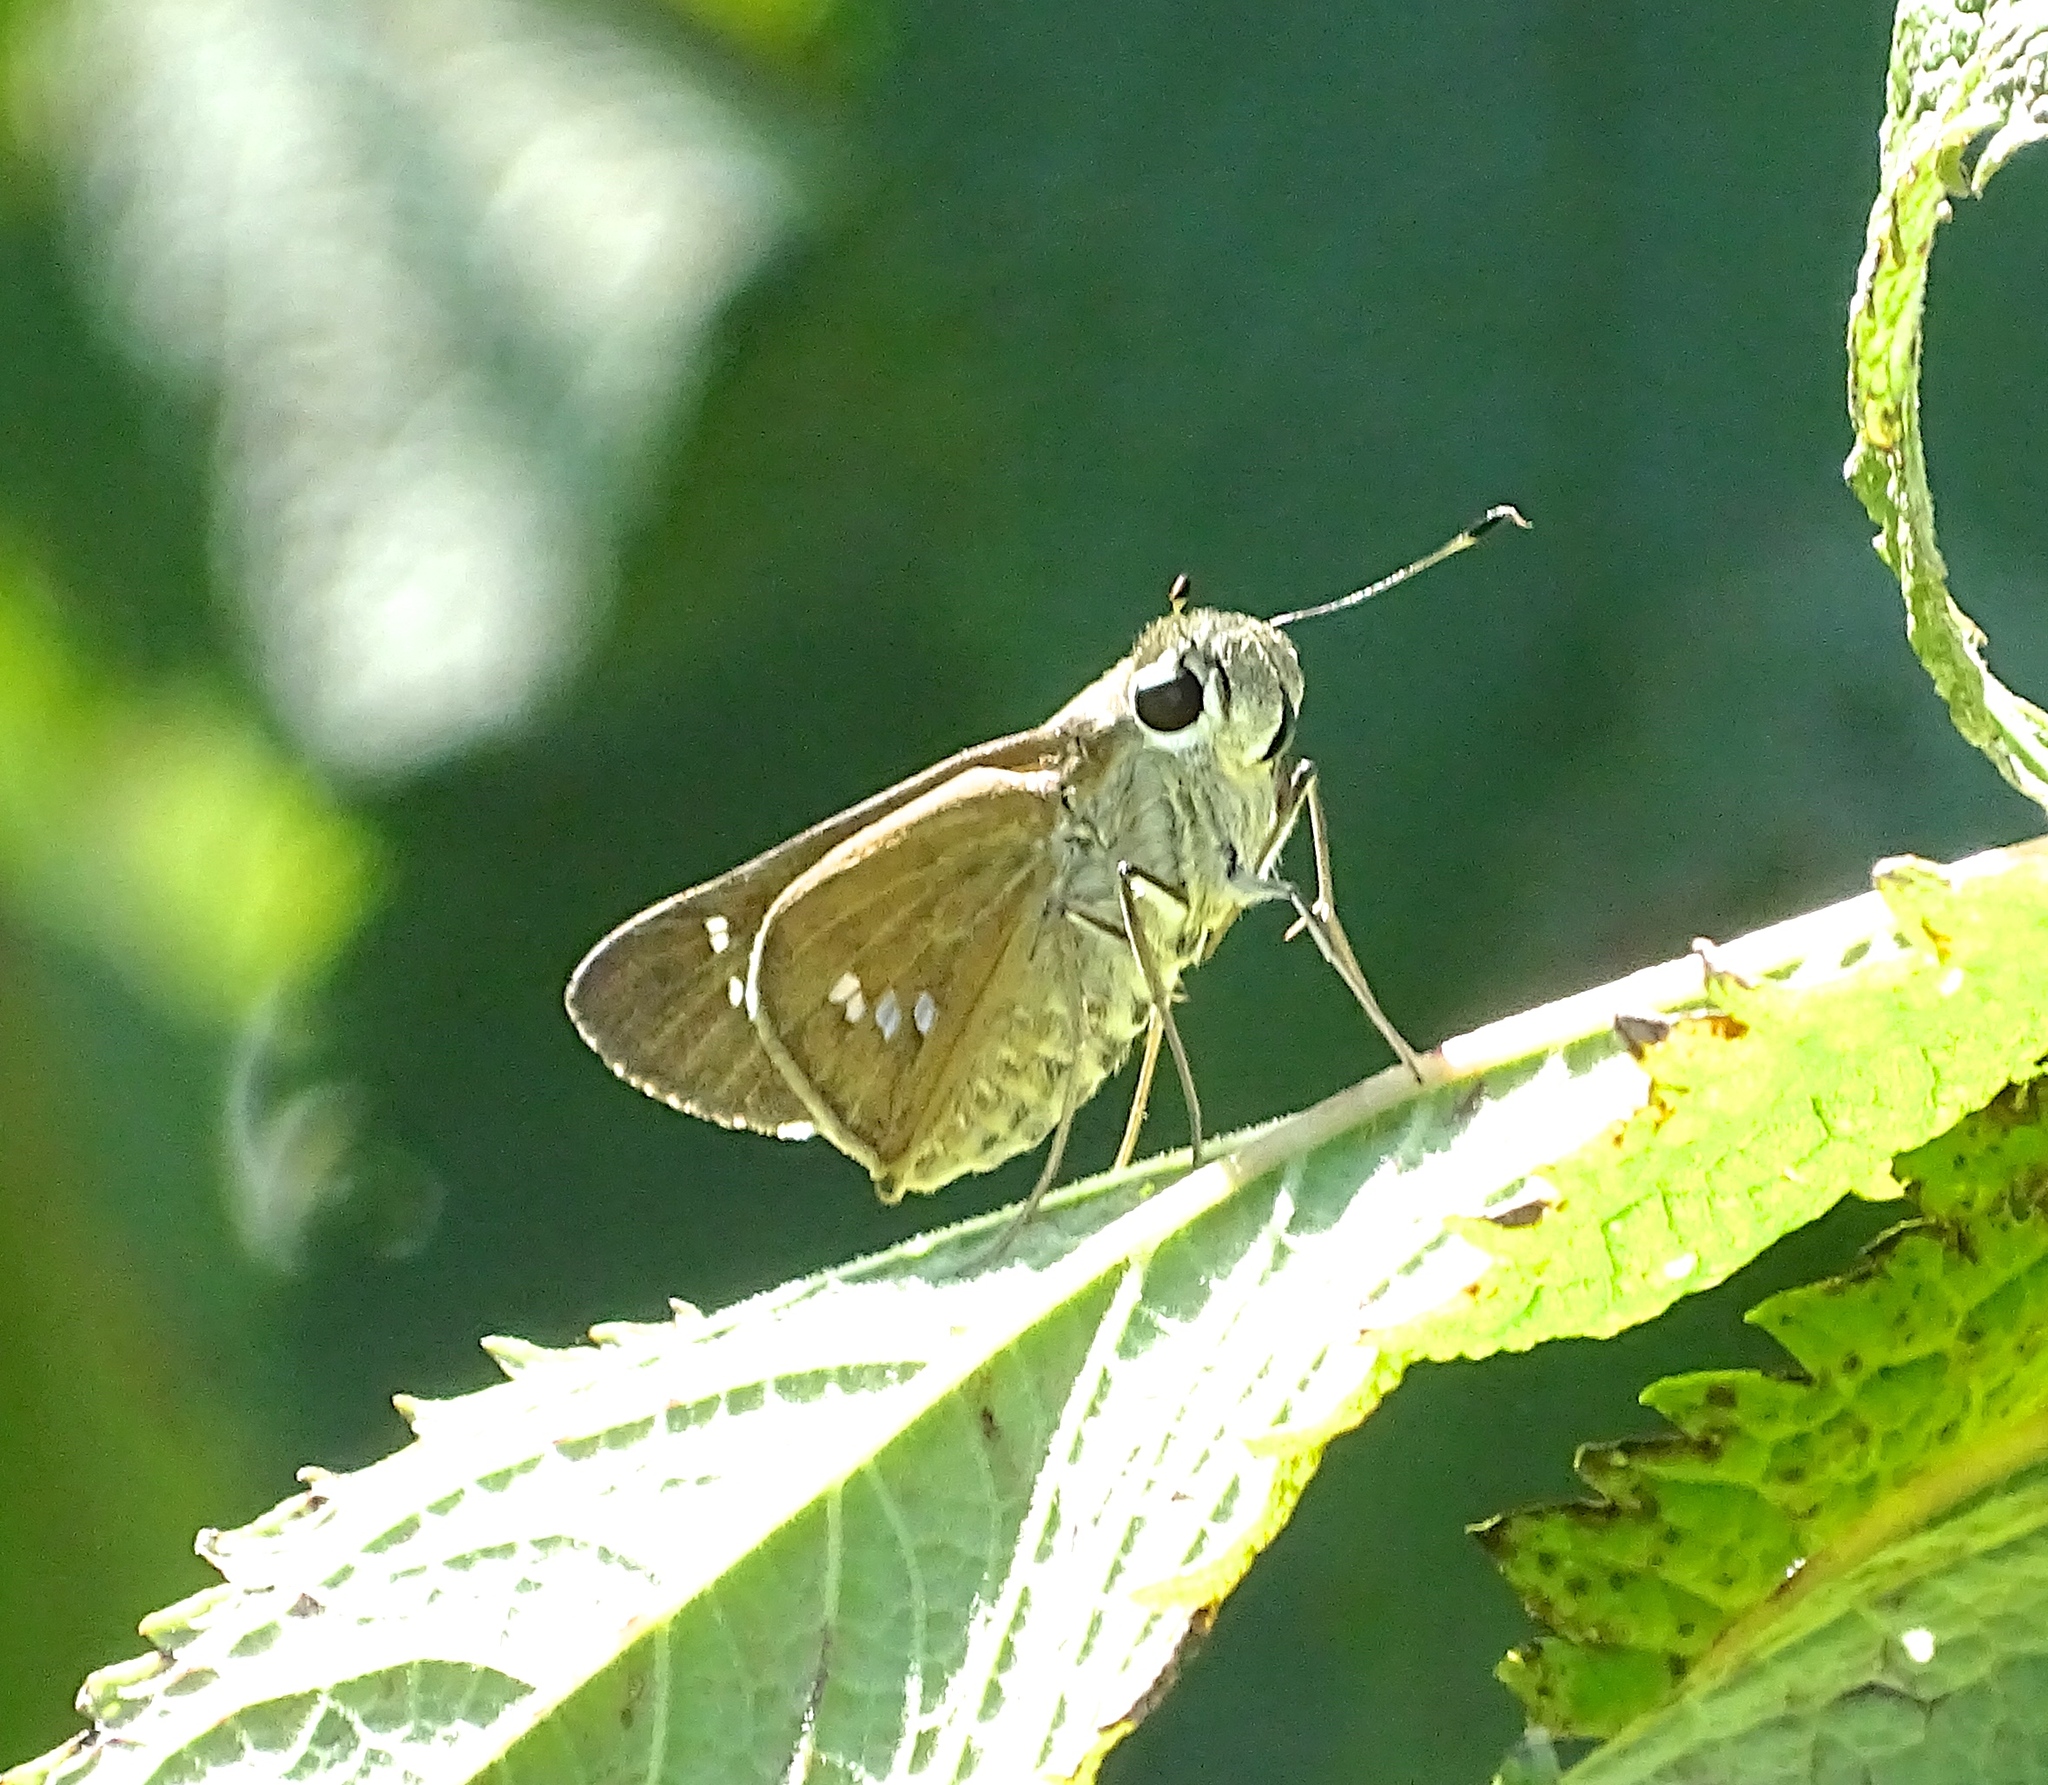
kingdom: Animalia
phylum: Arthropoda
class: Insecta
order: Lepidoptera
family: Hesperiidae
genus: Calpodes
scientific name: Calpodes ethlius
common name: Brazilian skipper
